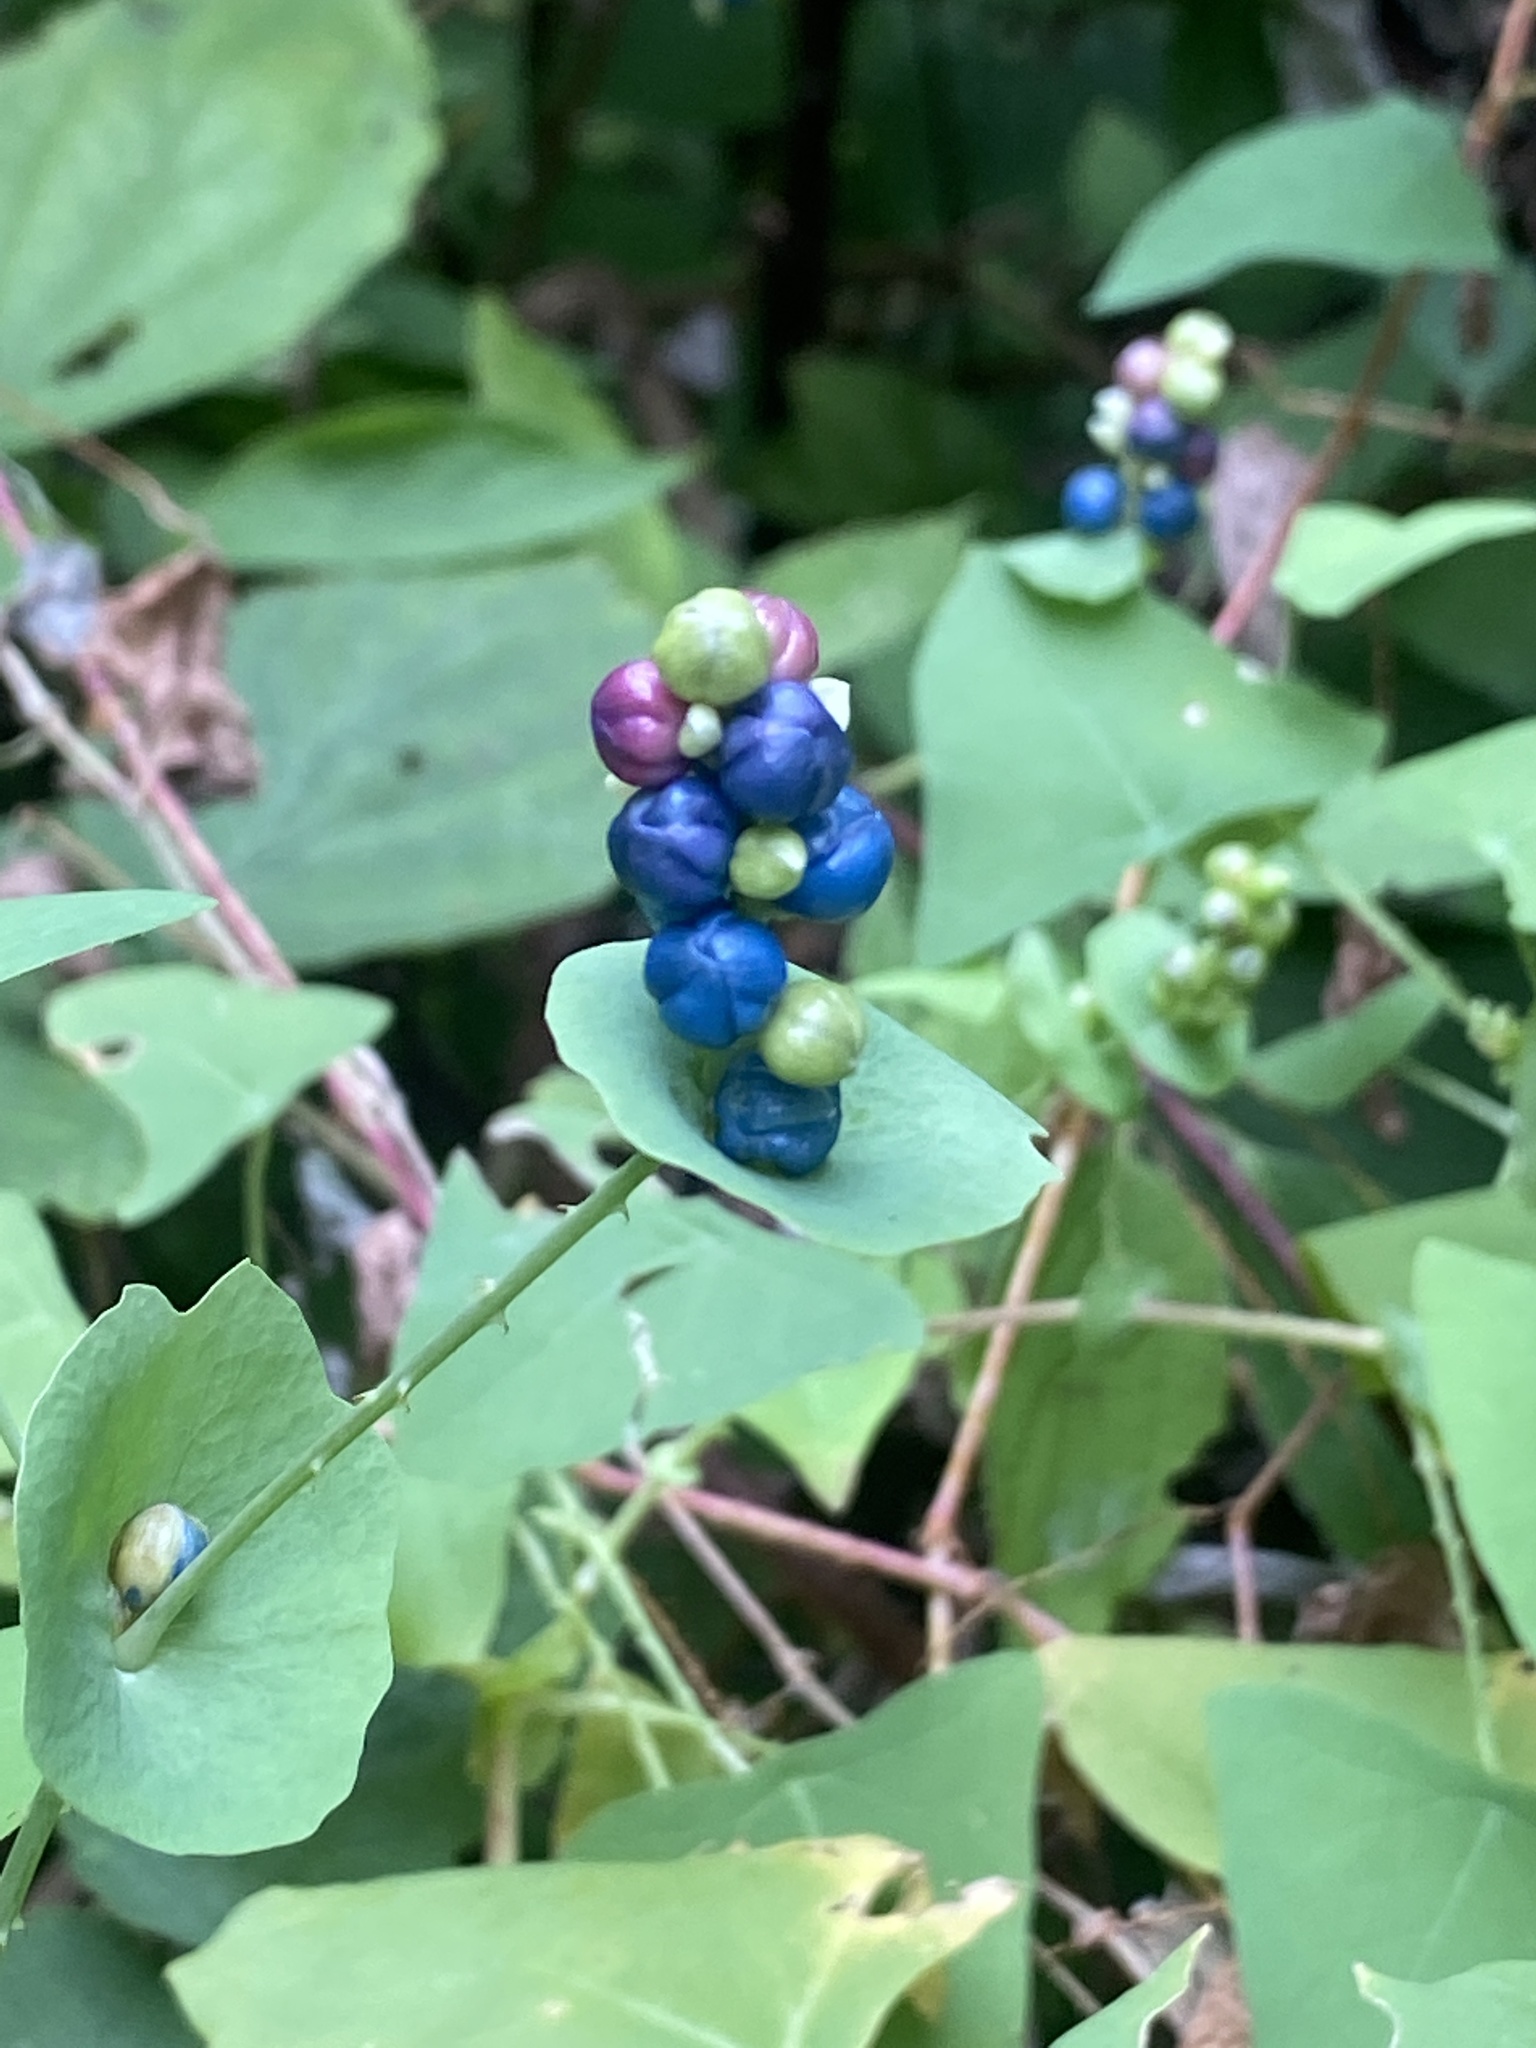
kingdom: Plantae
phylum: Tracheophyta
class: Magnoliopsida
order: Caryophyllales
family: Polygonaceae
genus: Persicaria
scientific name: Persicaria perfoliata
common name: Asiatic tearthumb
